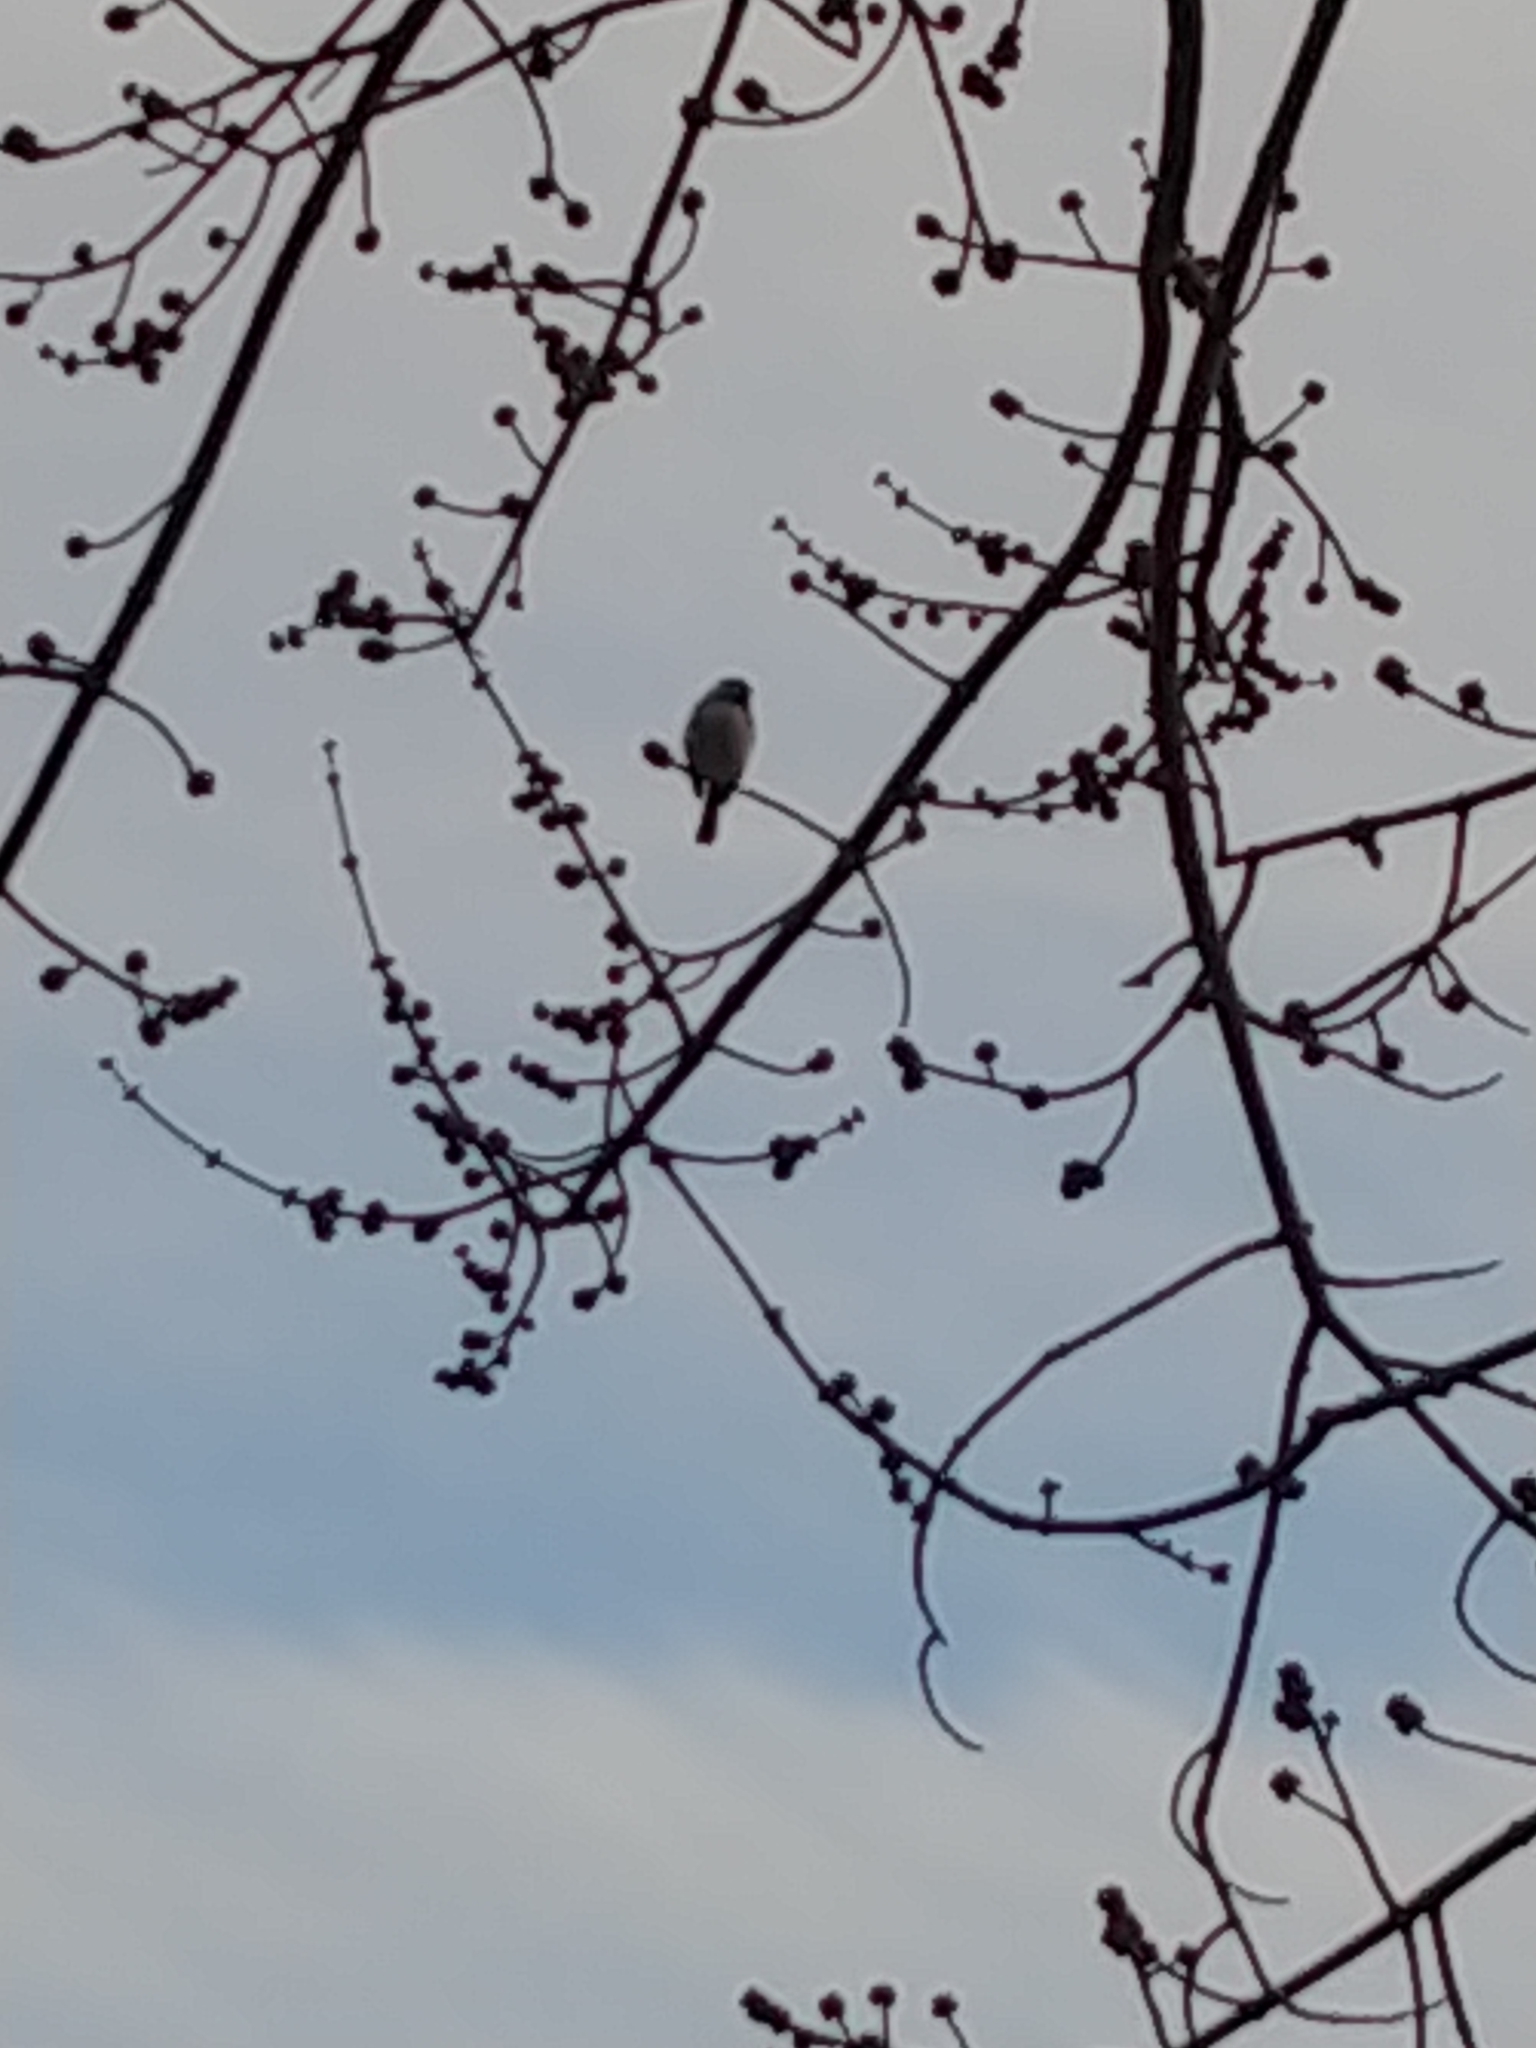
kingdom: Animalia
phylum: Chordata
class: Aves
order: Passeriformes
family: Paridae
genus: Poecile
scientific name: Poecile atricapillus
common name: Black-capped chickadee
